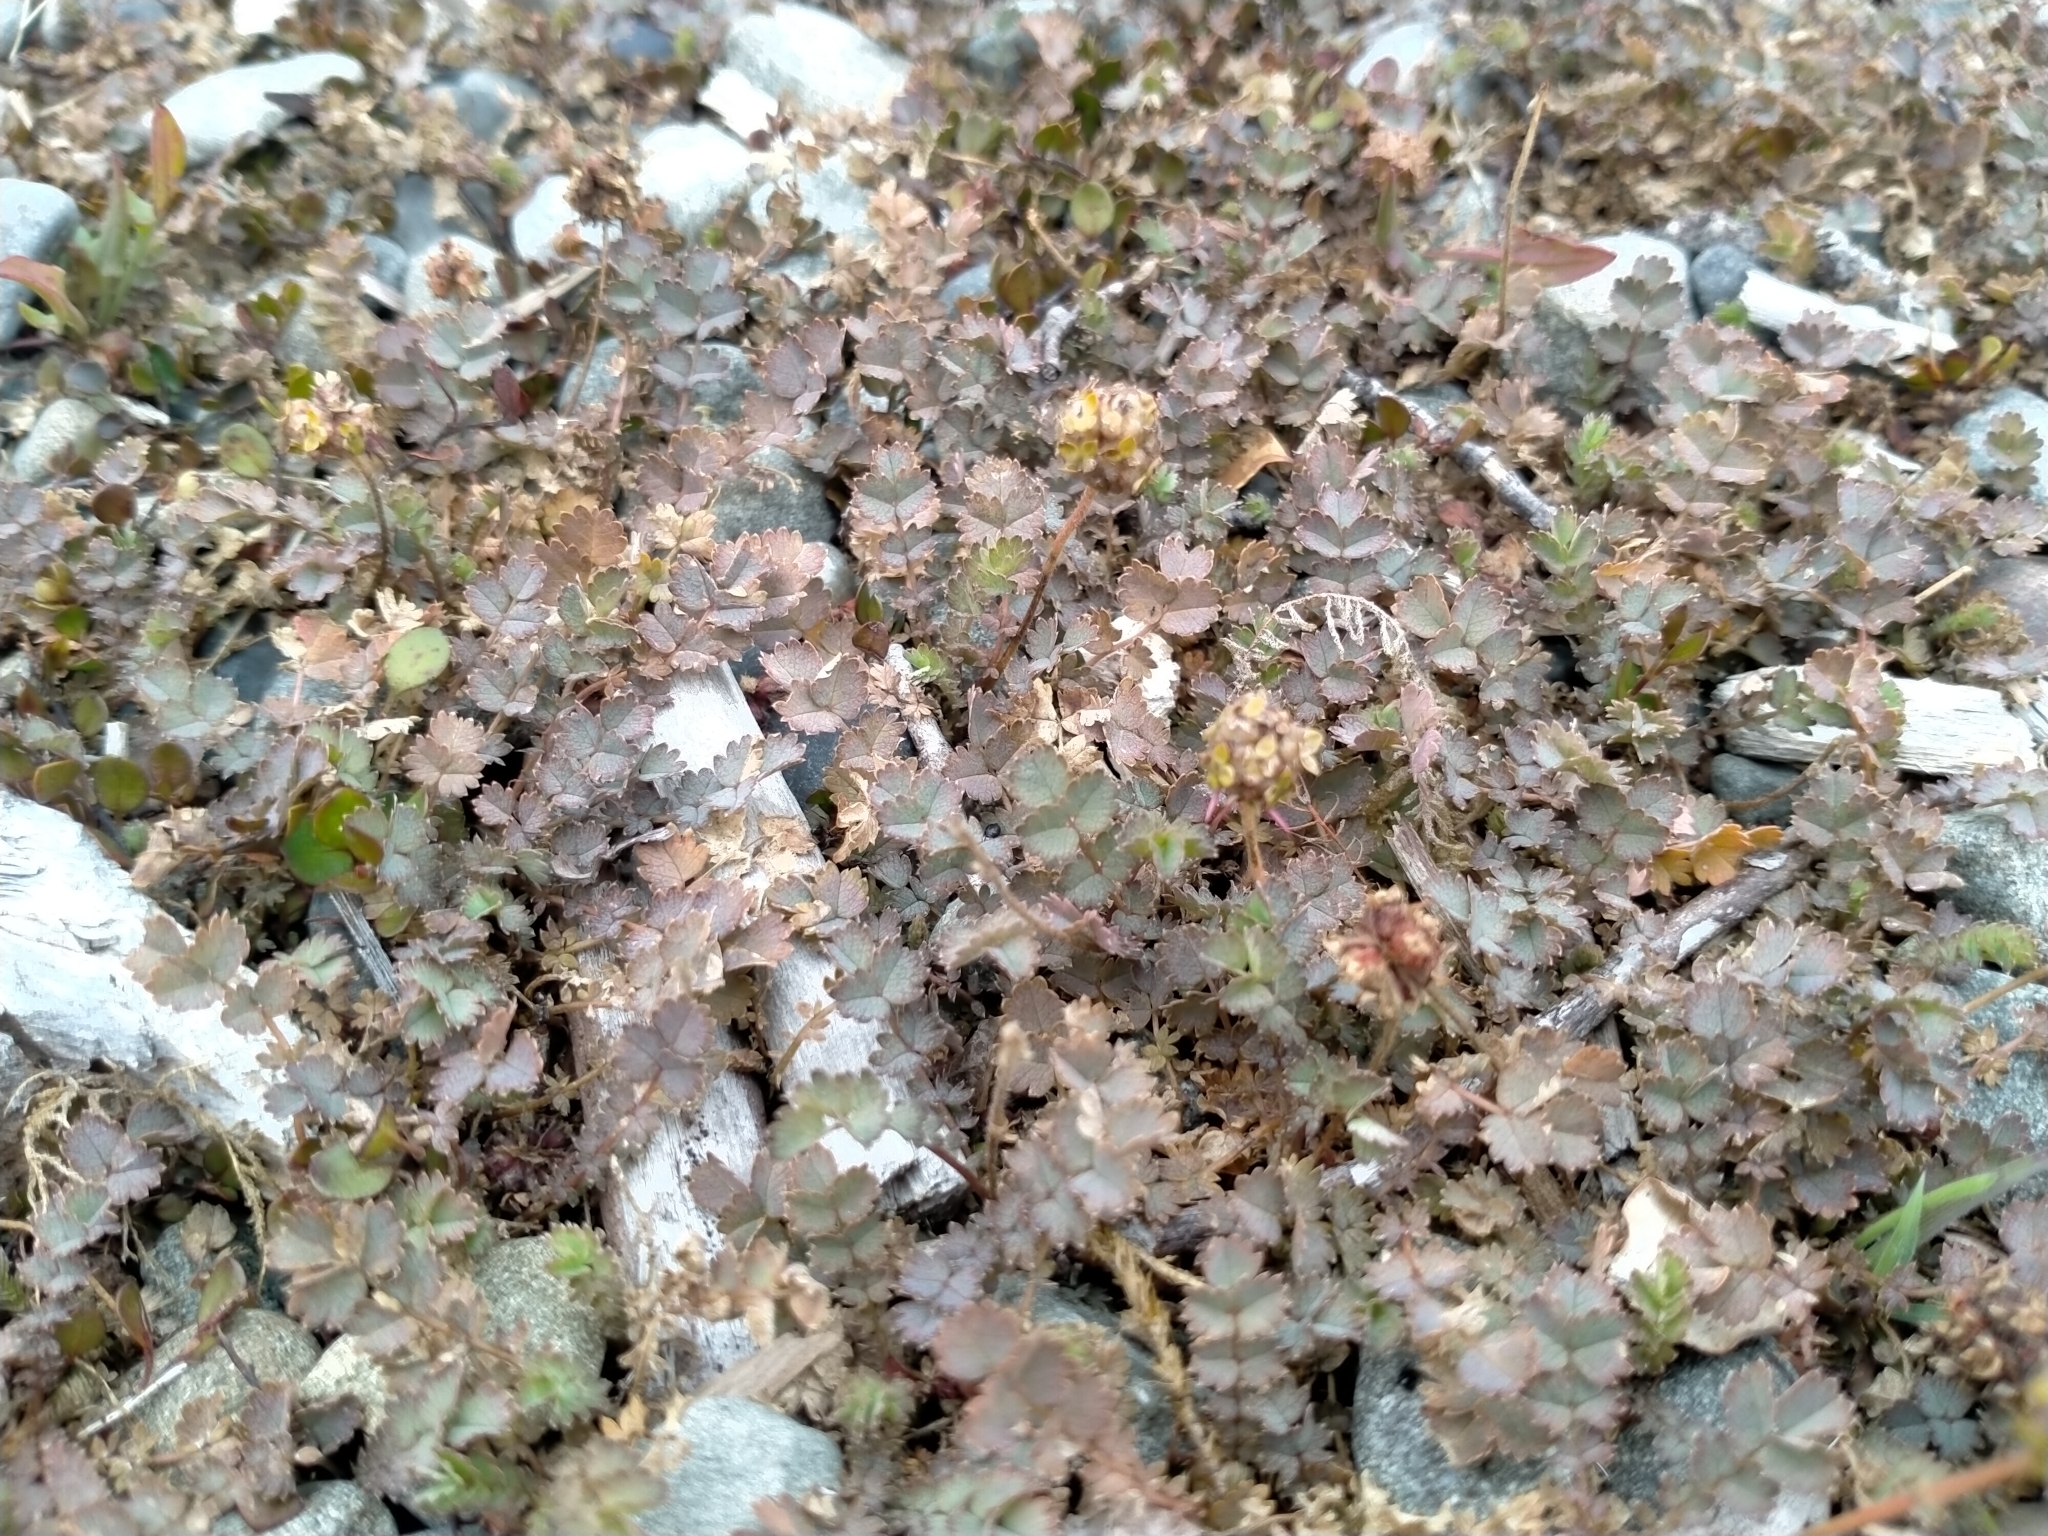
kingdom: Plantae
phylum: Tracheophyta
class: Magnoliopsida
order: Rosales
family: Rosaceae
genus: Acaena
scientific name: Acaena inermis
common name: Spineless acaena
